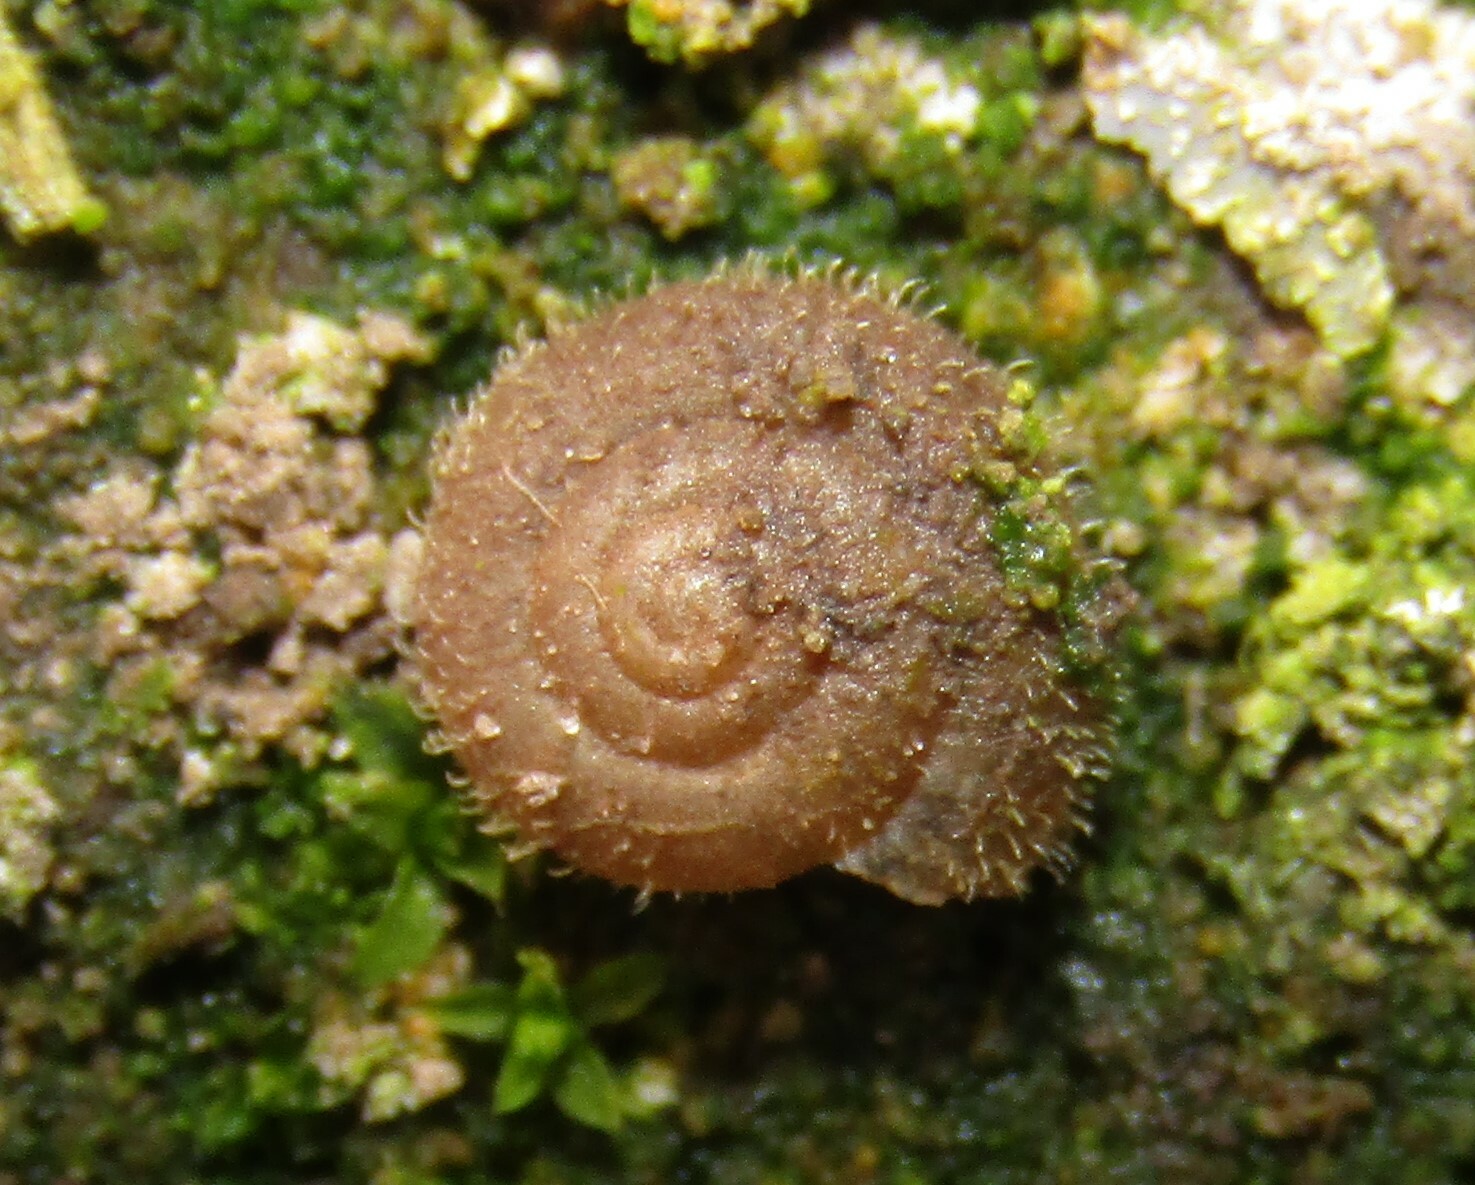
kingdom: Animalia
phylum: Mollusca
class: Gastropoda
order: Stylommatophora
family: Hygromiidae
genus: Trochulus
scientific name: Trochulus hispidus
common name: Hairy snail
